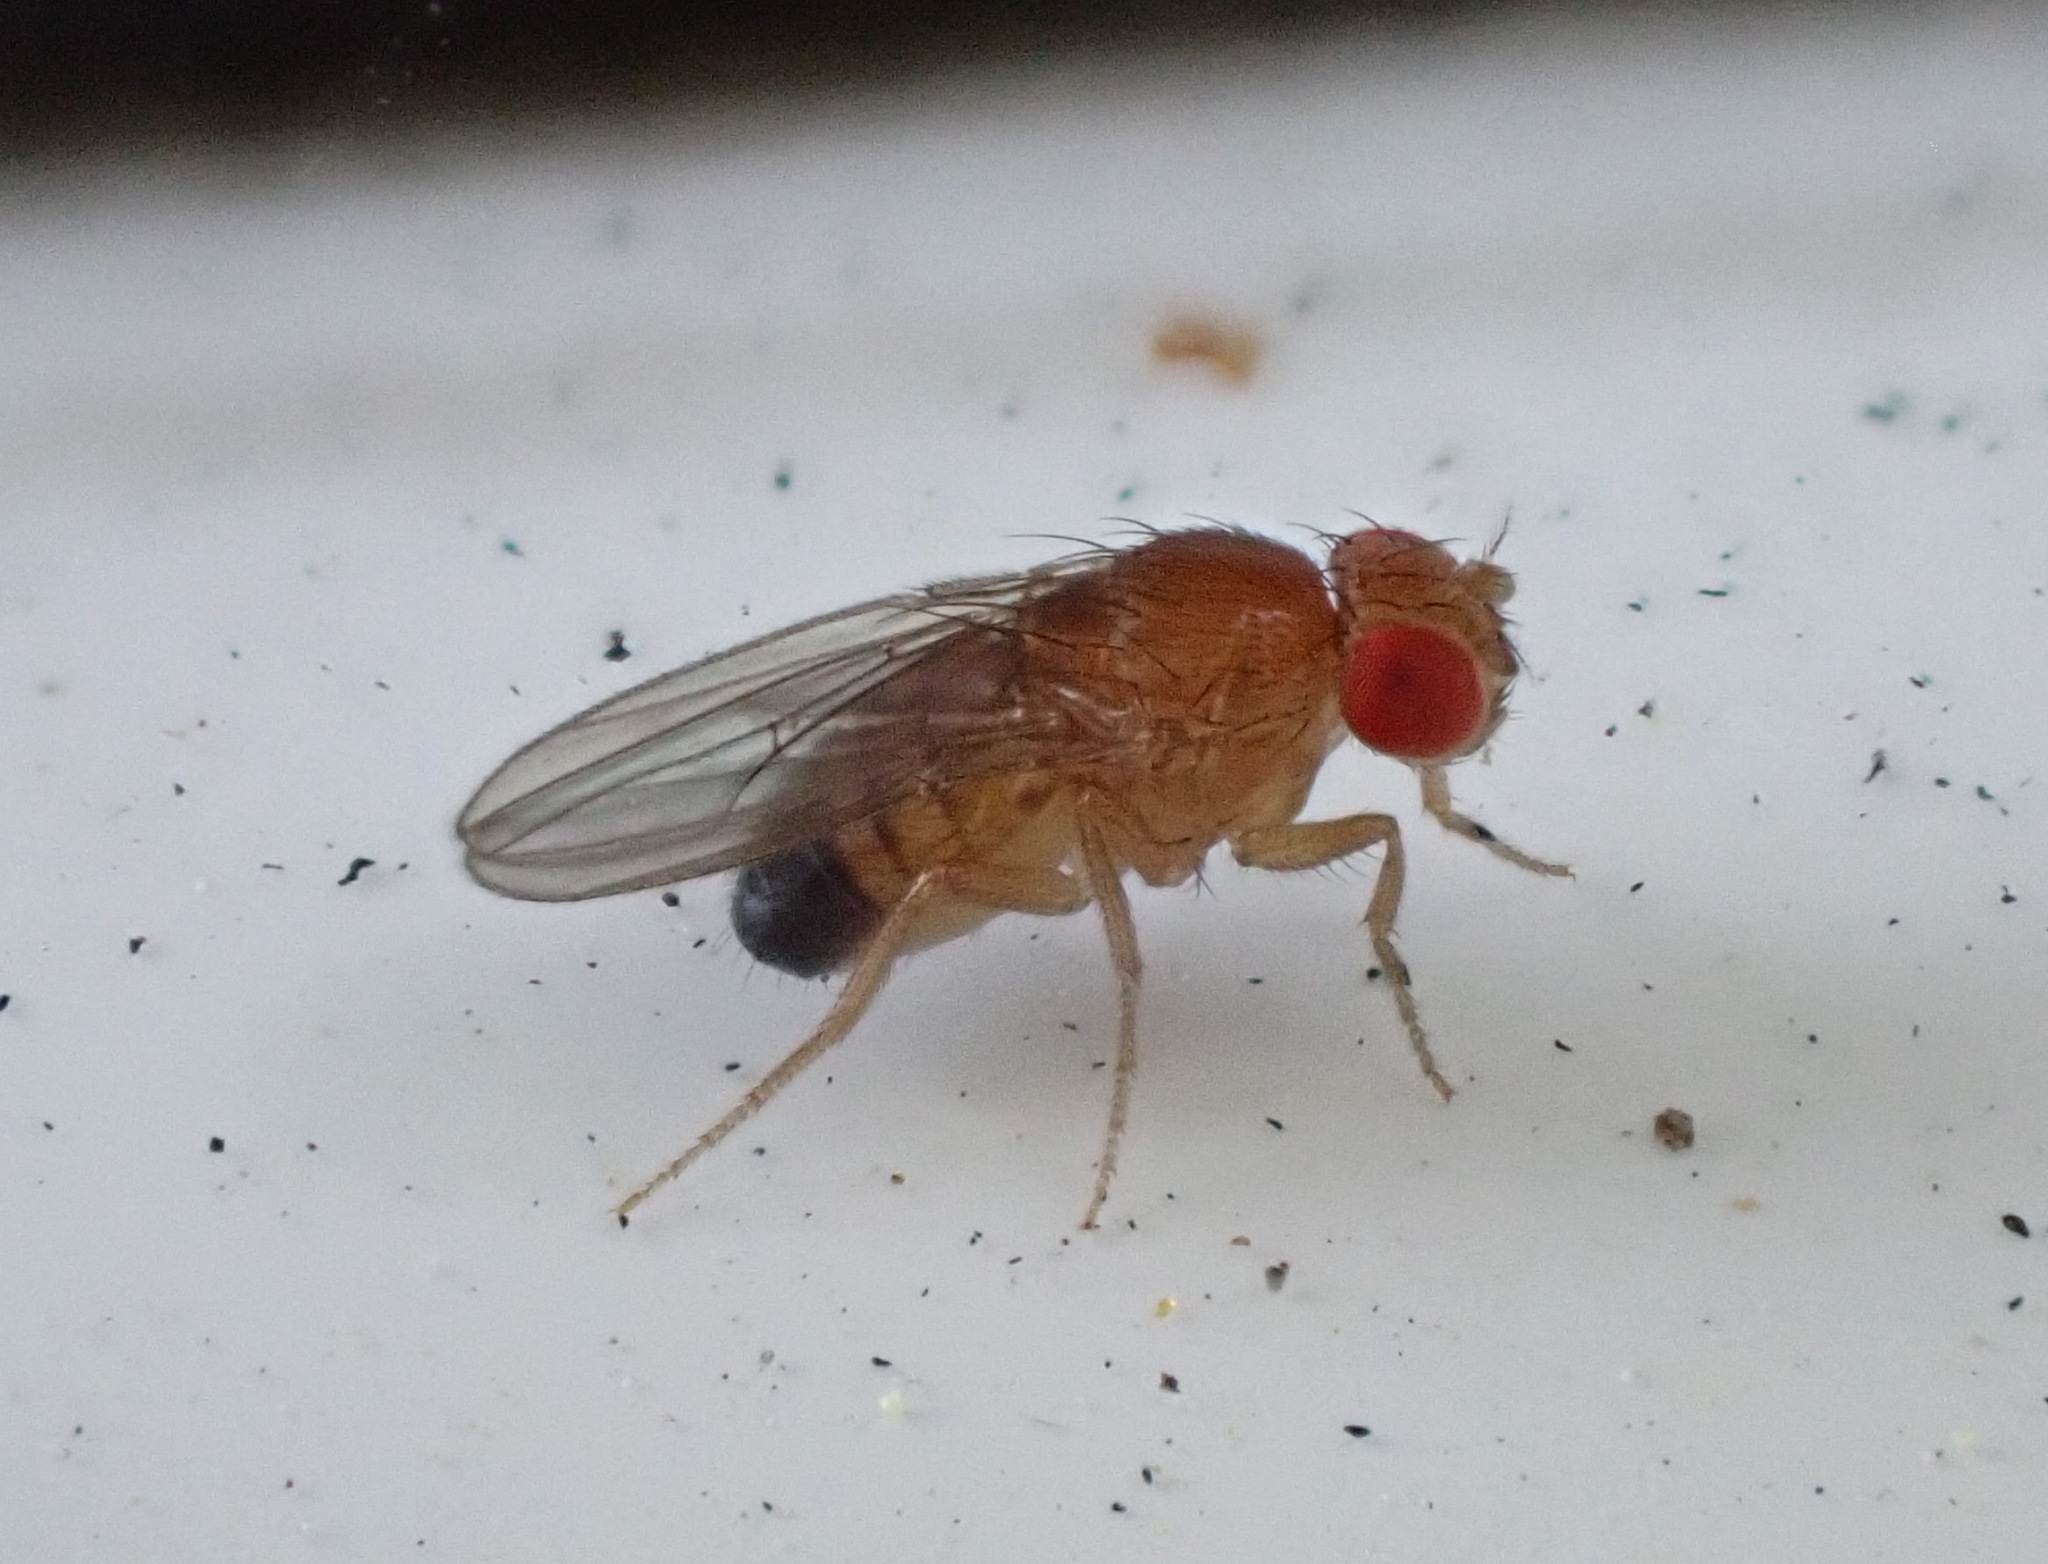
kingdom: Animalia
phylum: Arthropoda
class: Insecta
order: Diptera
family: Drosophilidae
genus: Drosophila
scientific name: Drosophila melanogaster
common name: Pomace fly
